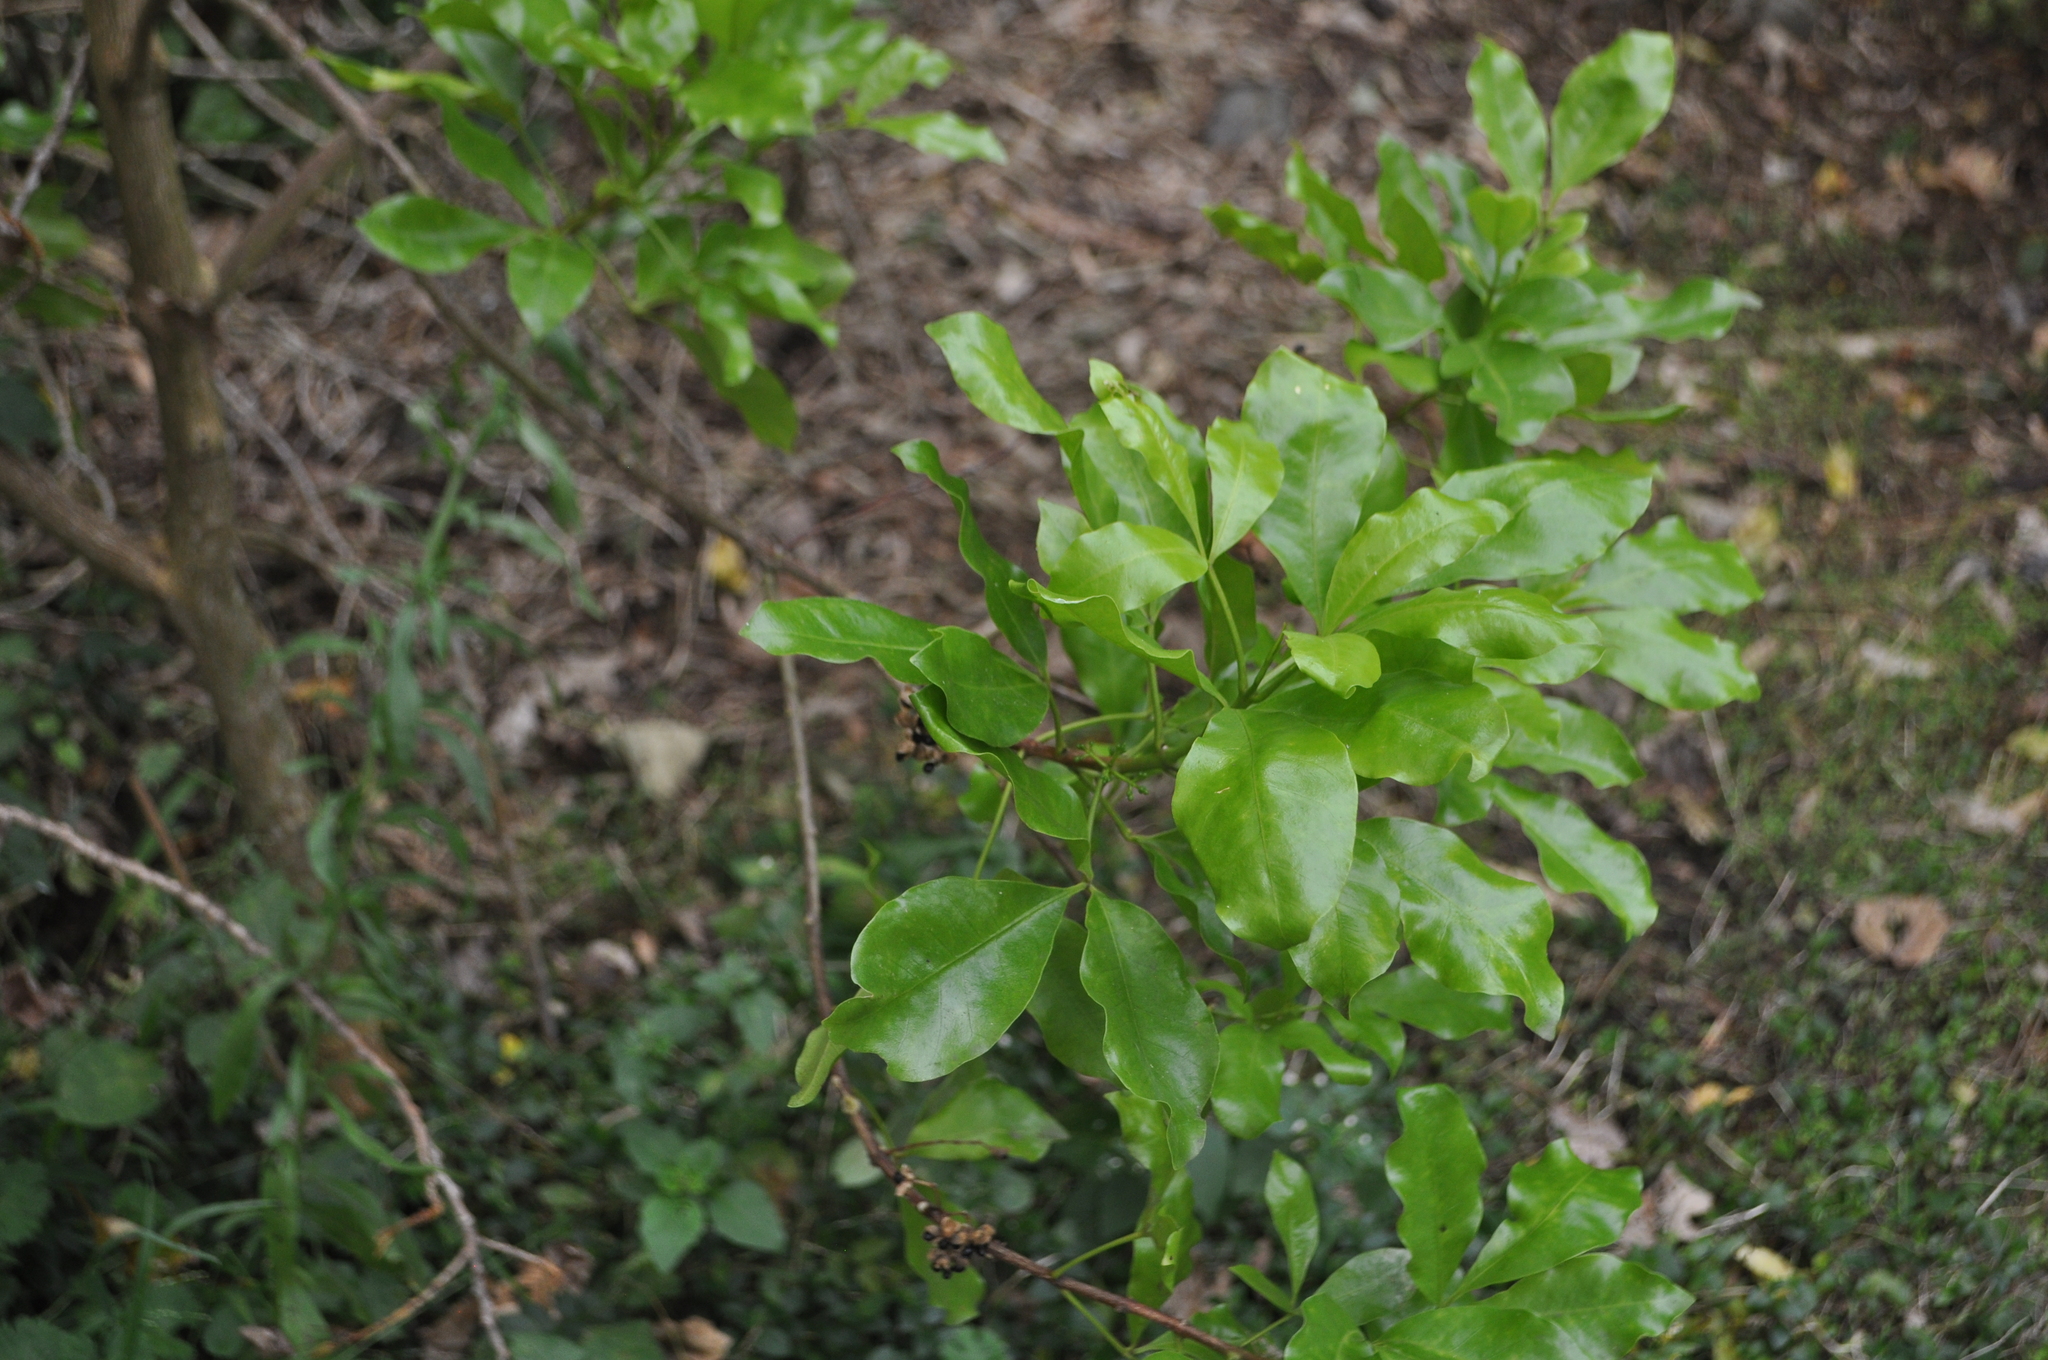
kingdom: Plantae
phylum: Tracheophyta
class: Magnoliopsida
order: Sapindales
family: Rutaceae
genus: Melicope
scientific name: Melicope ternata
